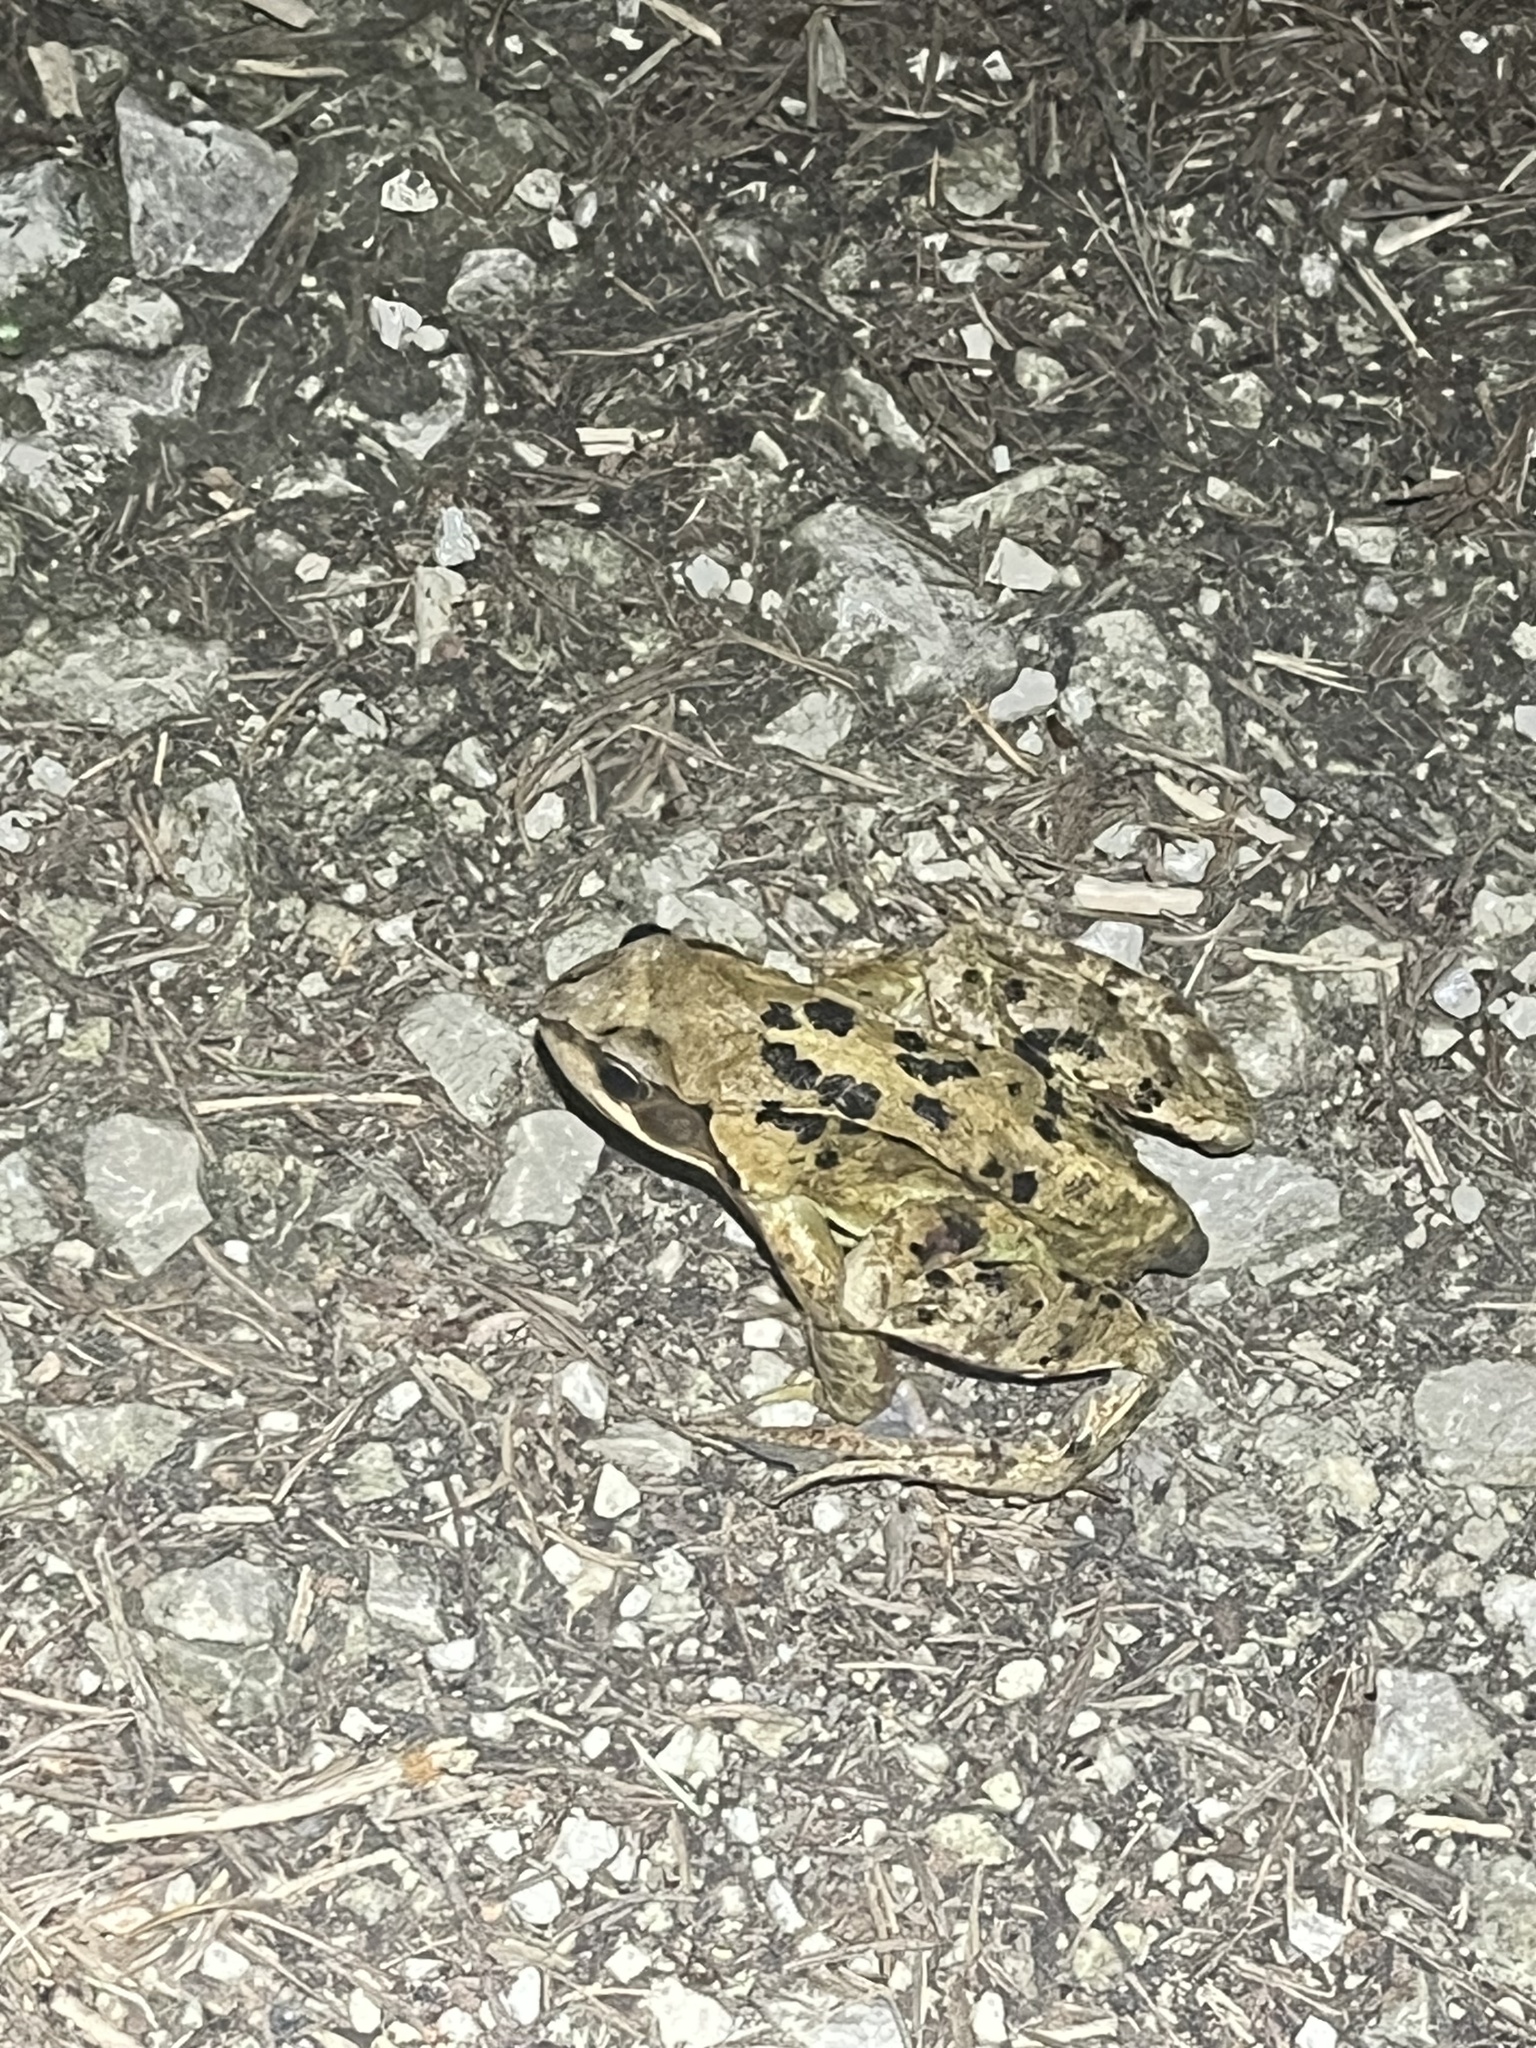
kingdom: Animalia
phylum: Chordata
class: Amphibia
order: Anura
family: Ranidae
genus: Rana
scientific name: Rana temporaria
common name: Common frog
